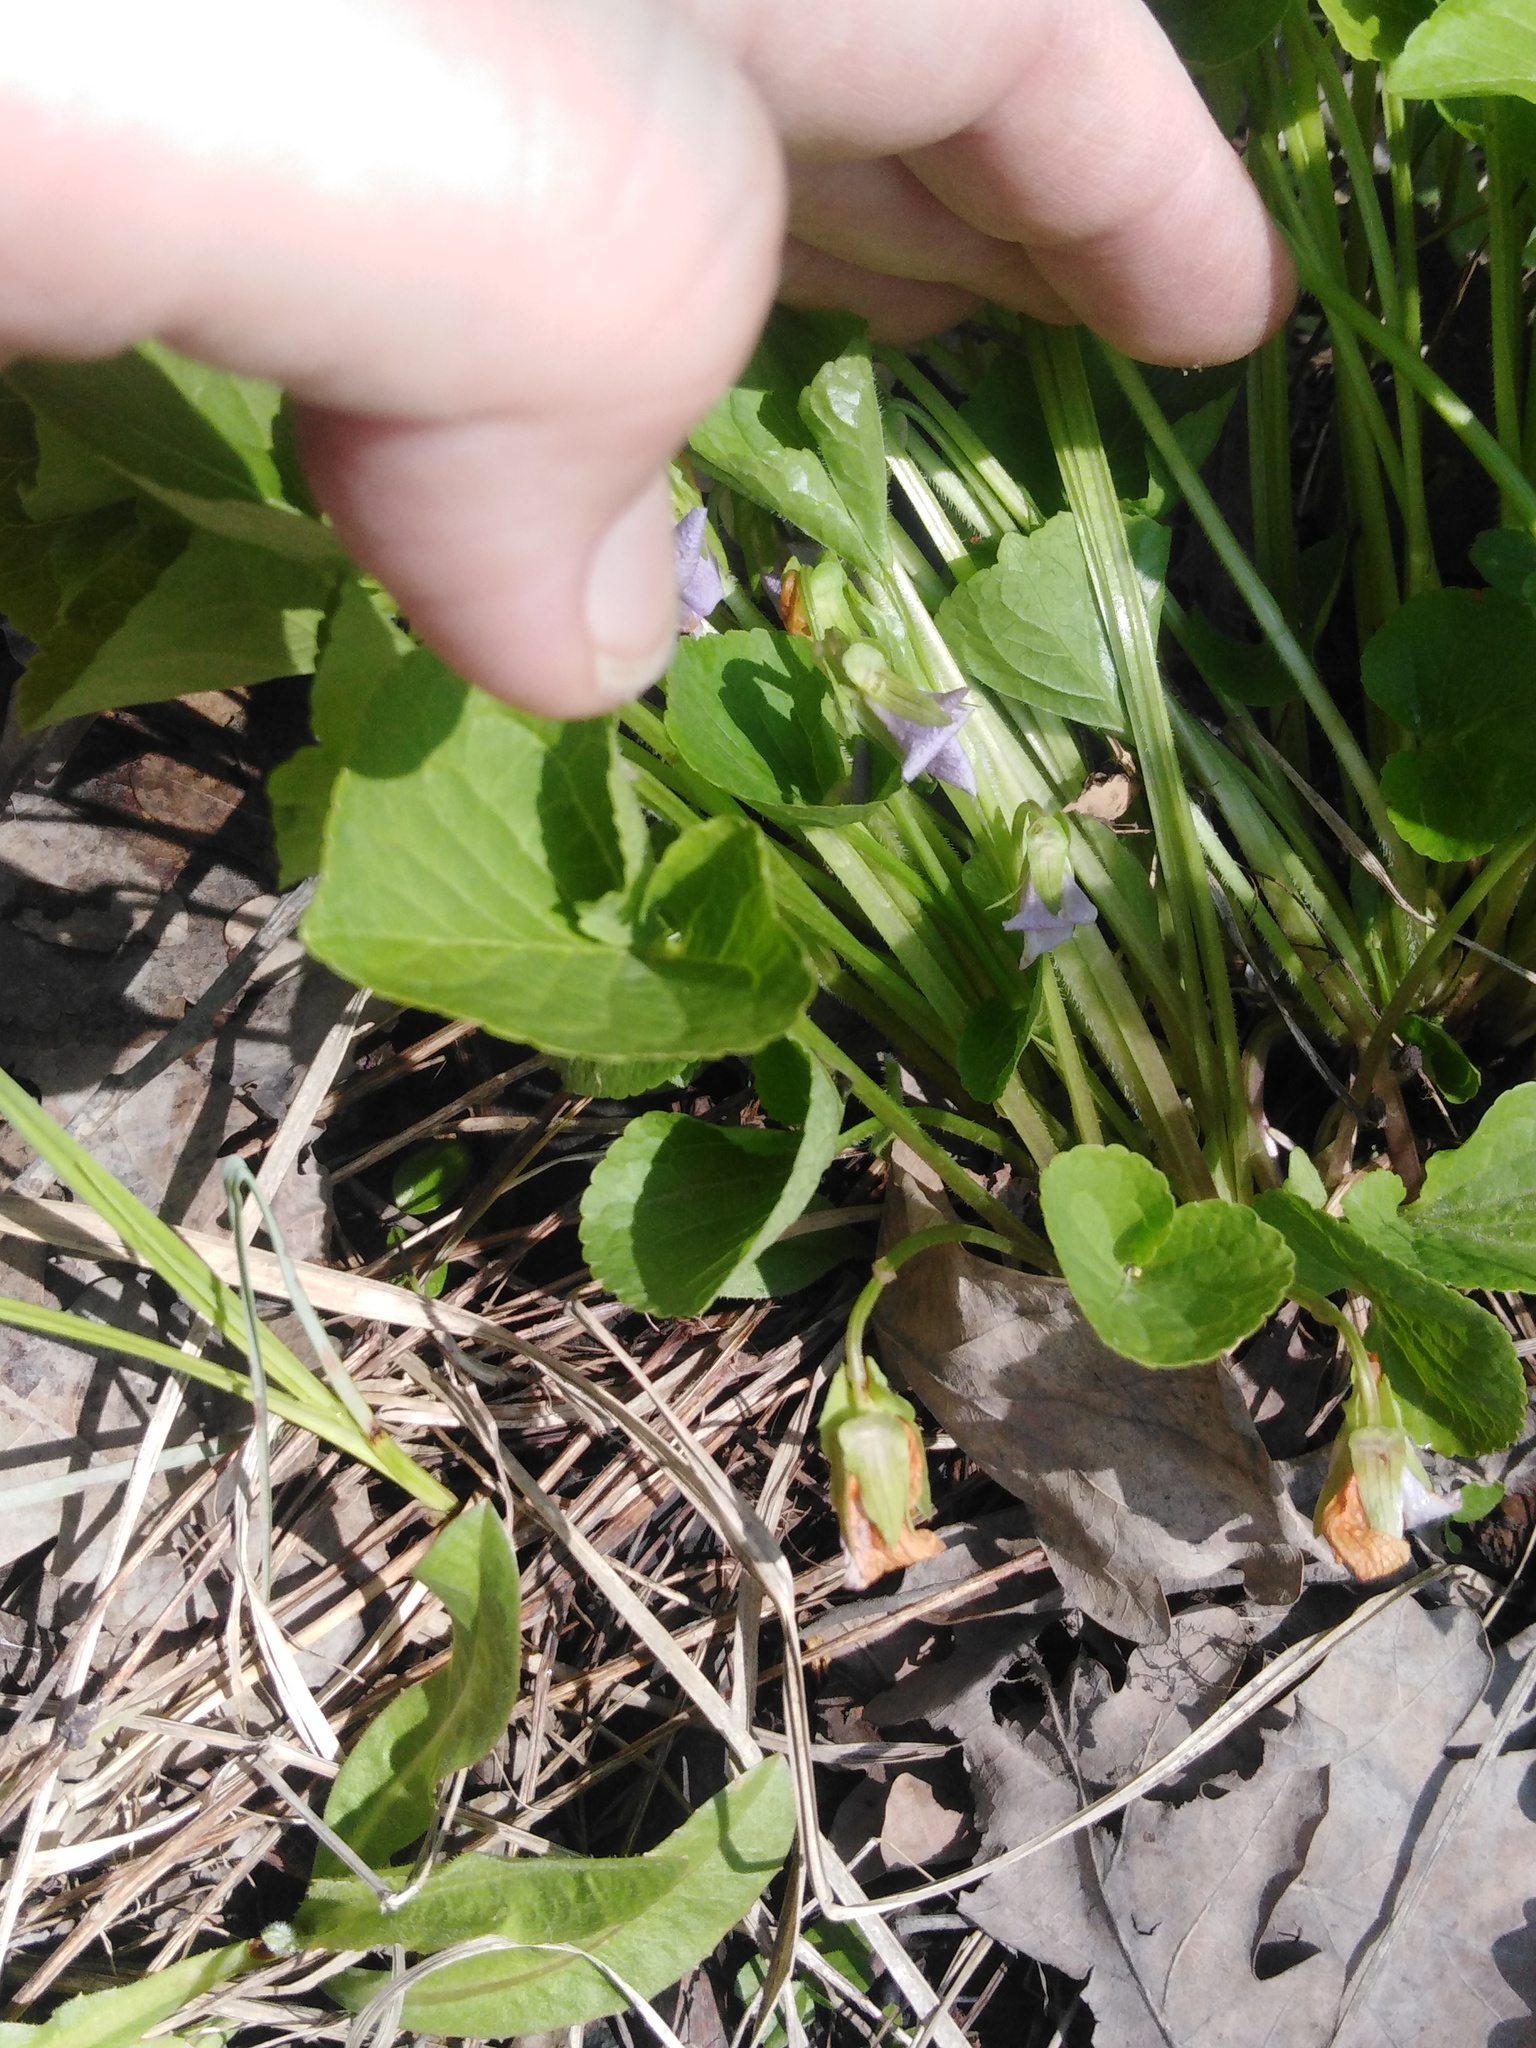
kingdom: Plantae
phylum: Tracheophyta
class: Magnoliopsida
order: Malpighiales
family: Violaceae
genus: Viola
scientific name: Viola mirabilis
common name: Wonder violet
